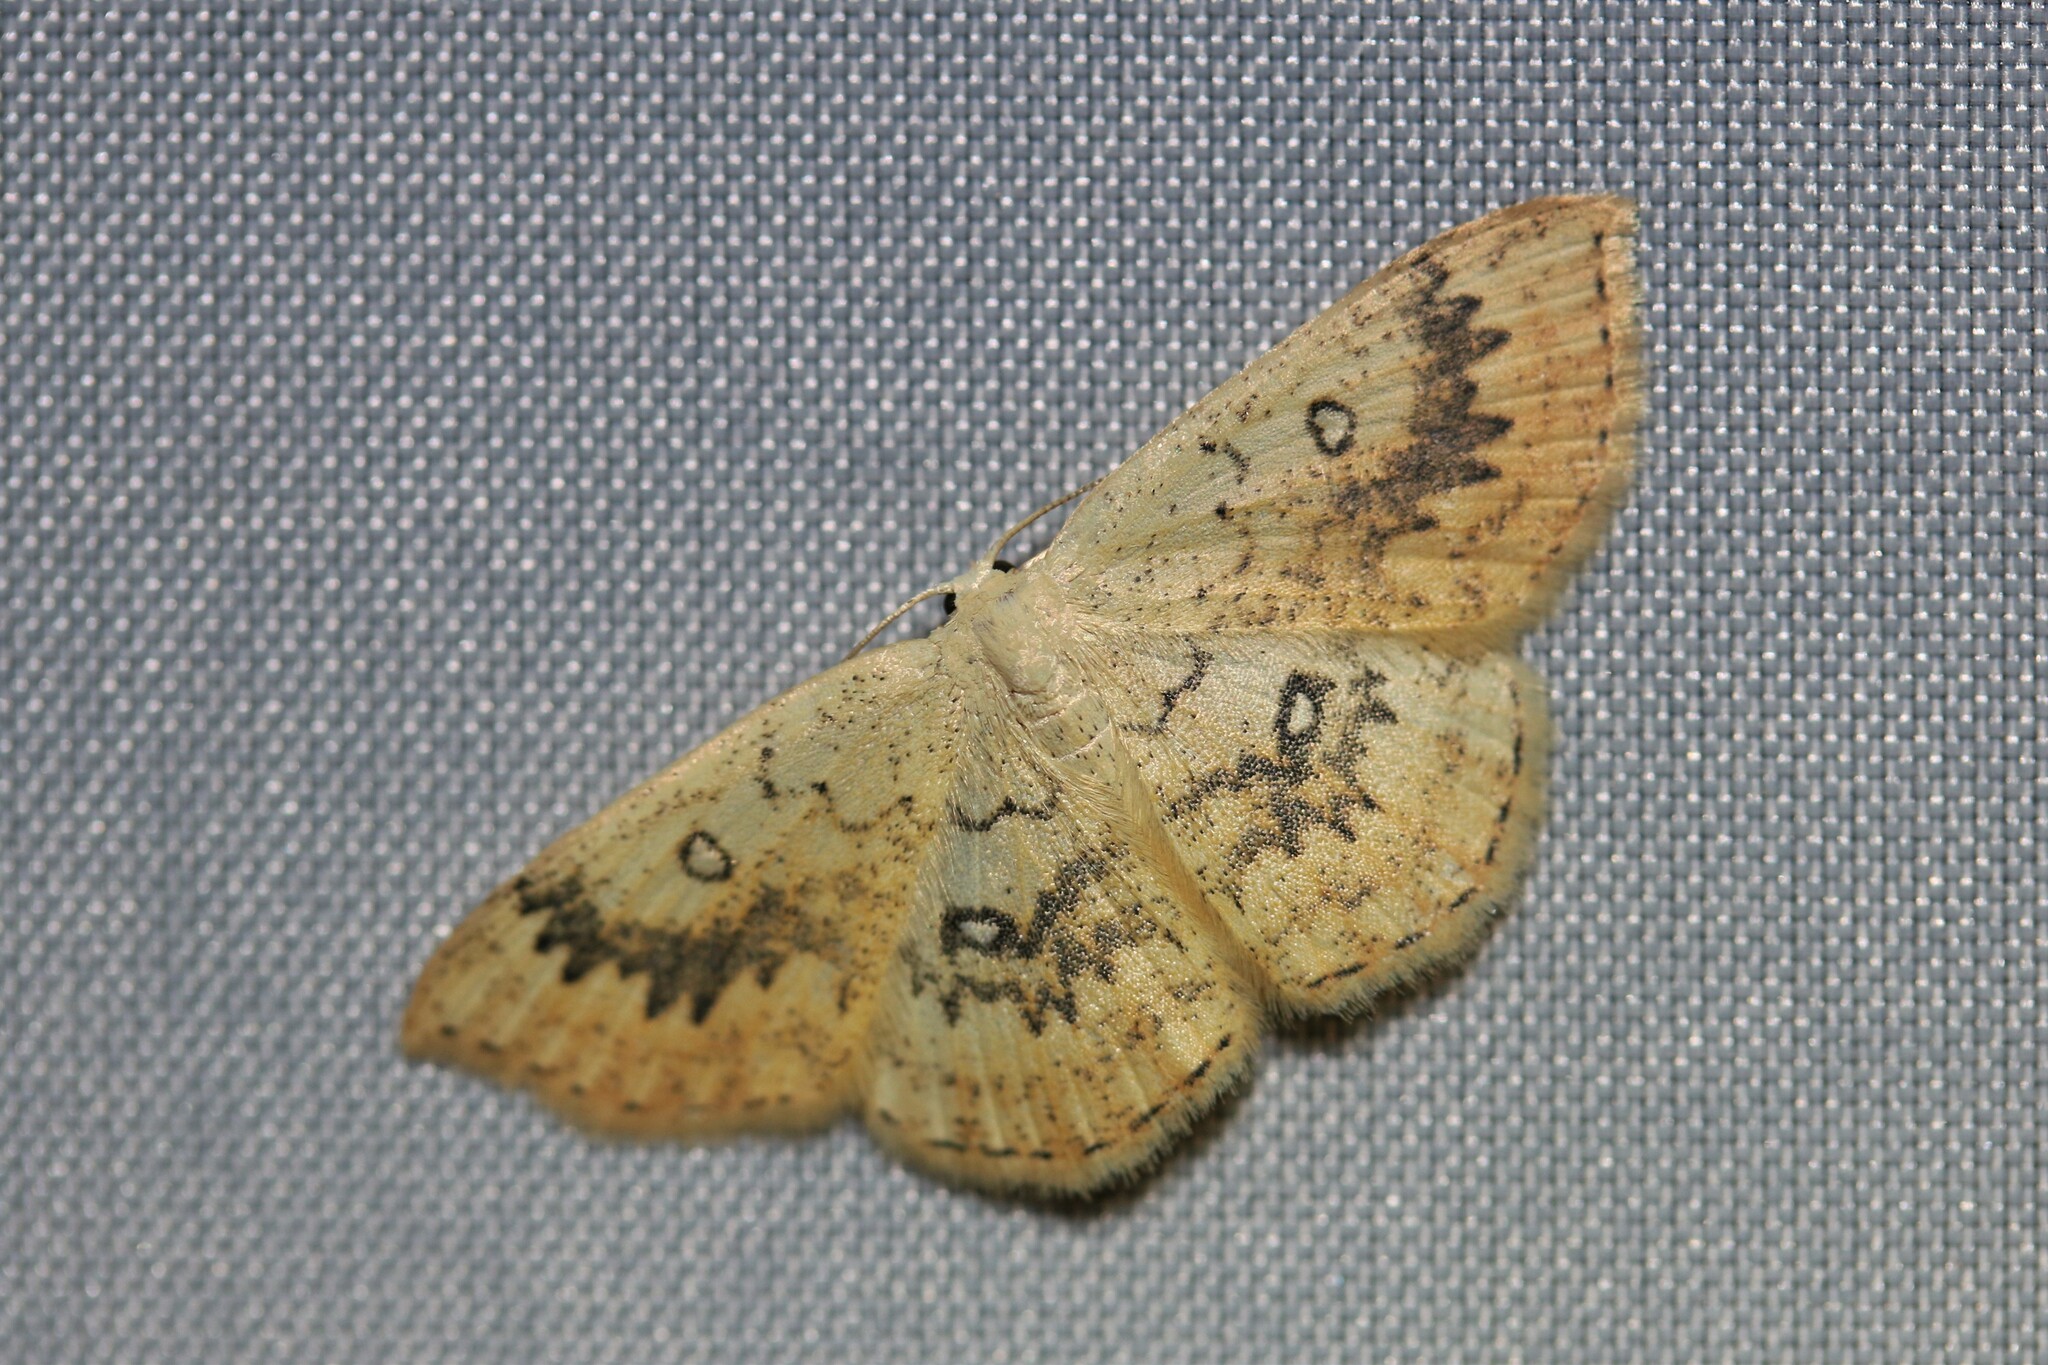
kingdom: Animalia
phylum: Arthropoda
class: Insecta
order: Lepidoptera
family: Geometridae
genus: Cyclophora
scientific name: Cyclophora annularia
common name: Mocha
